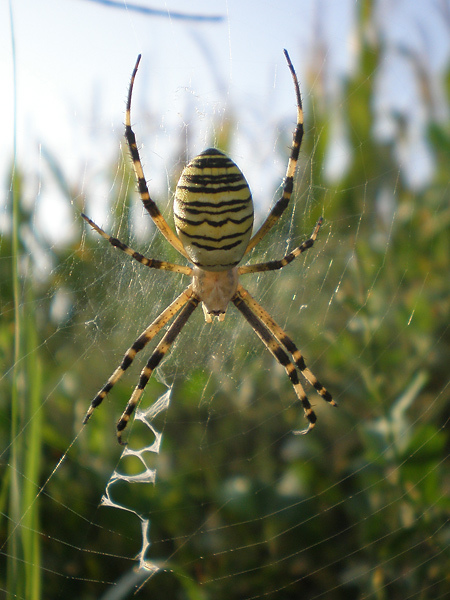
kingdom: Animalia
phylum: Arthropoda
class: Arachnida
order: Araneae
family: Araneidae
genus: Argiope
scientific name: Argiope bruennichi
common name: Wasp spider
